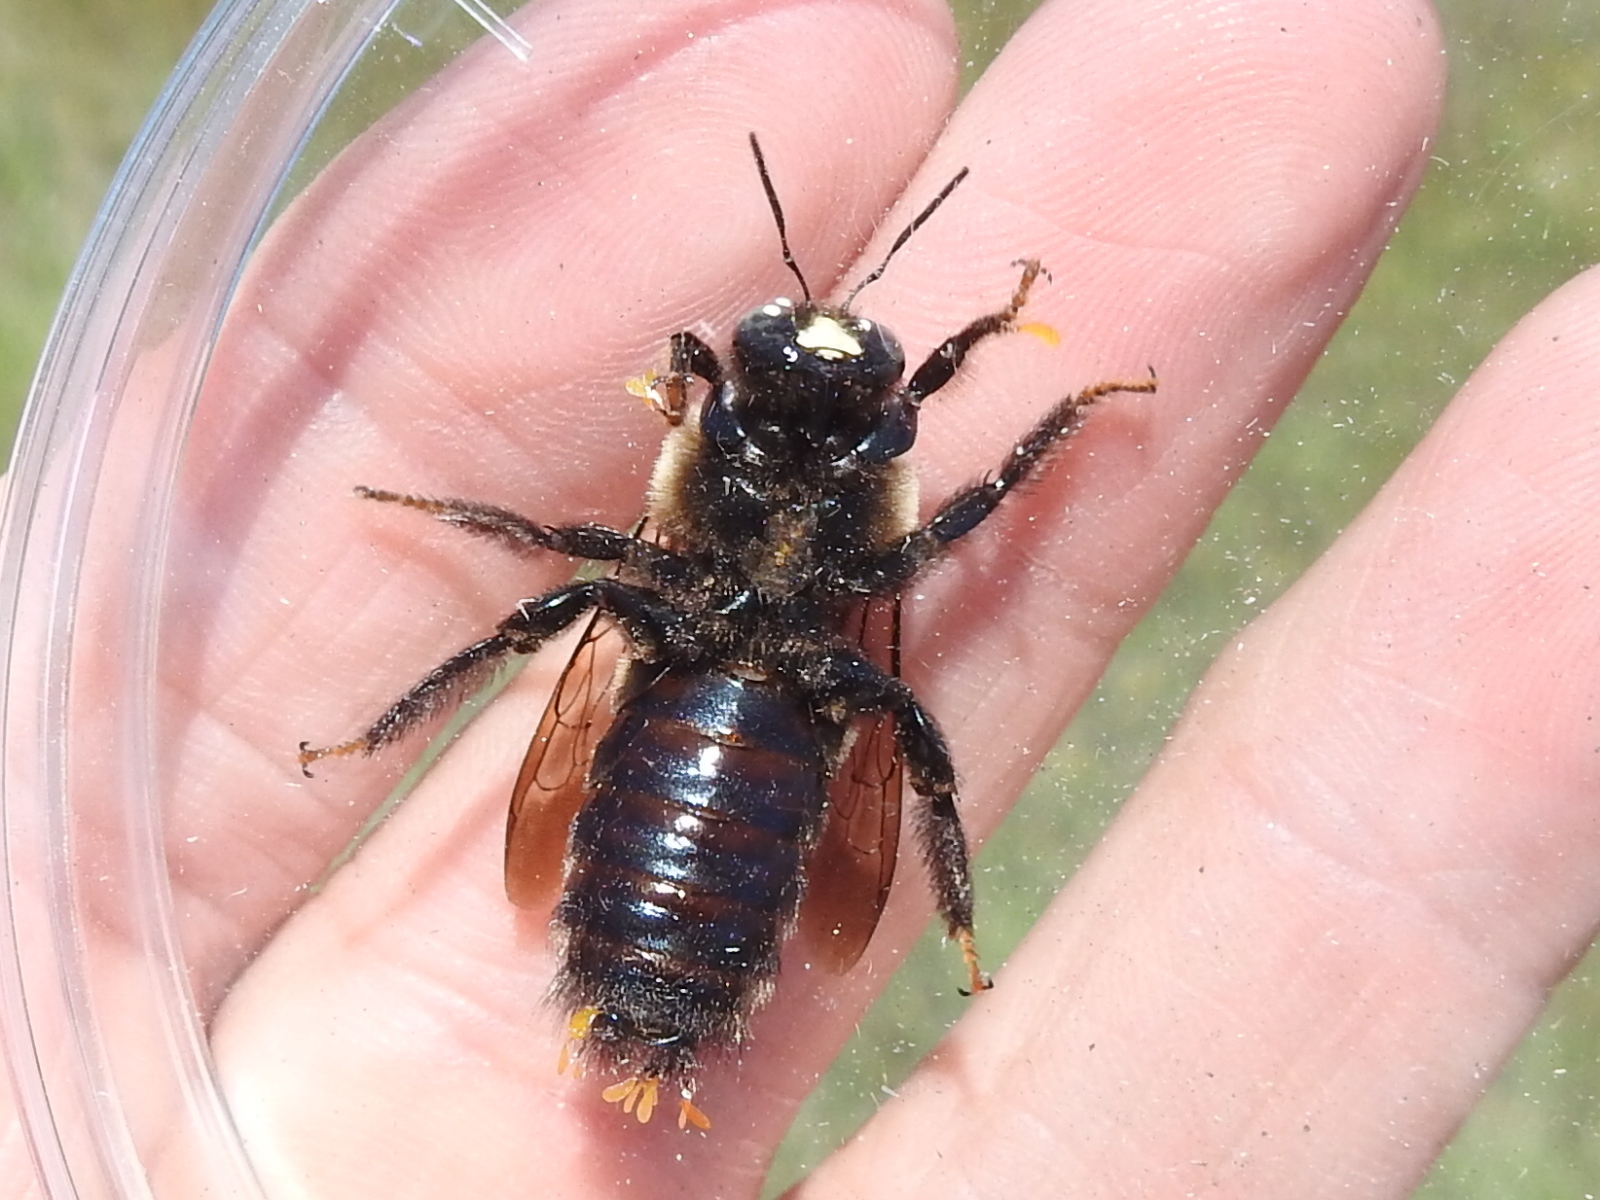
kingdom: Animalia
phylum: Arthropoda
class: Insecta
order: Hymenoptera
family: Apidae
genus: Xylocopa
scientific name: Xylocopa virginica
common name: Carpenter bee
